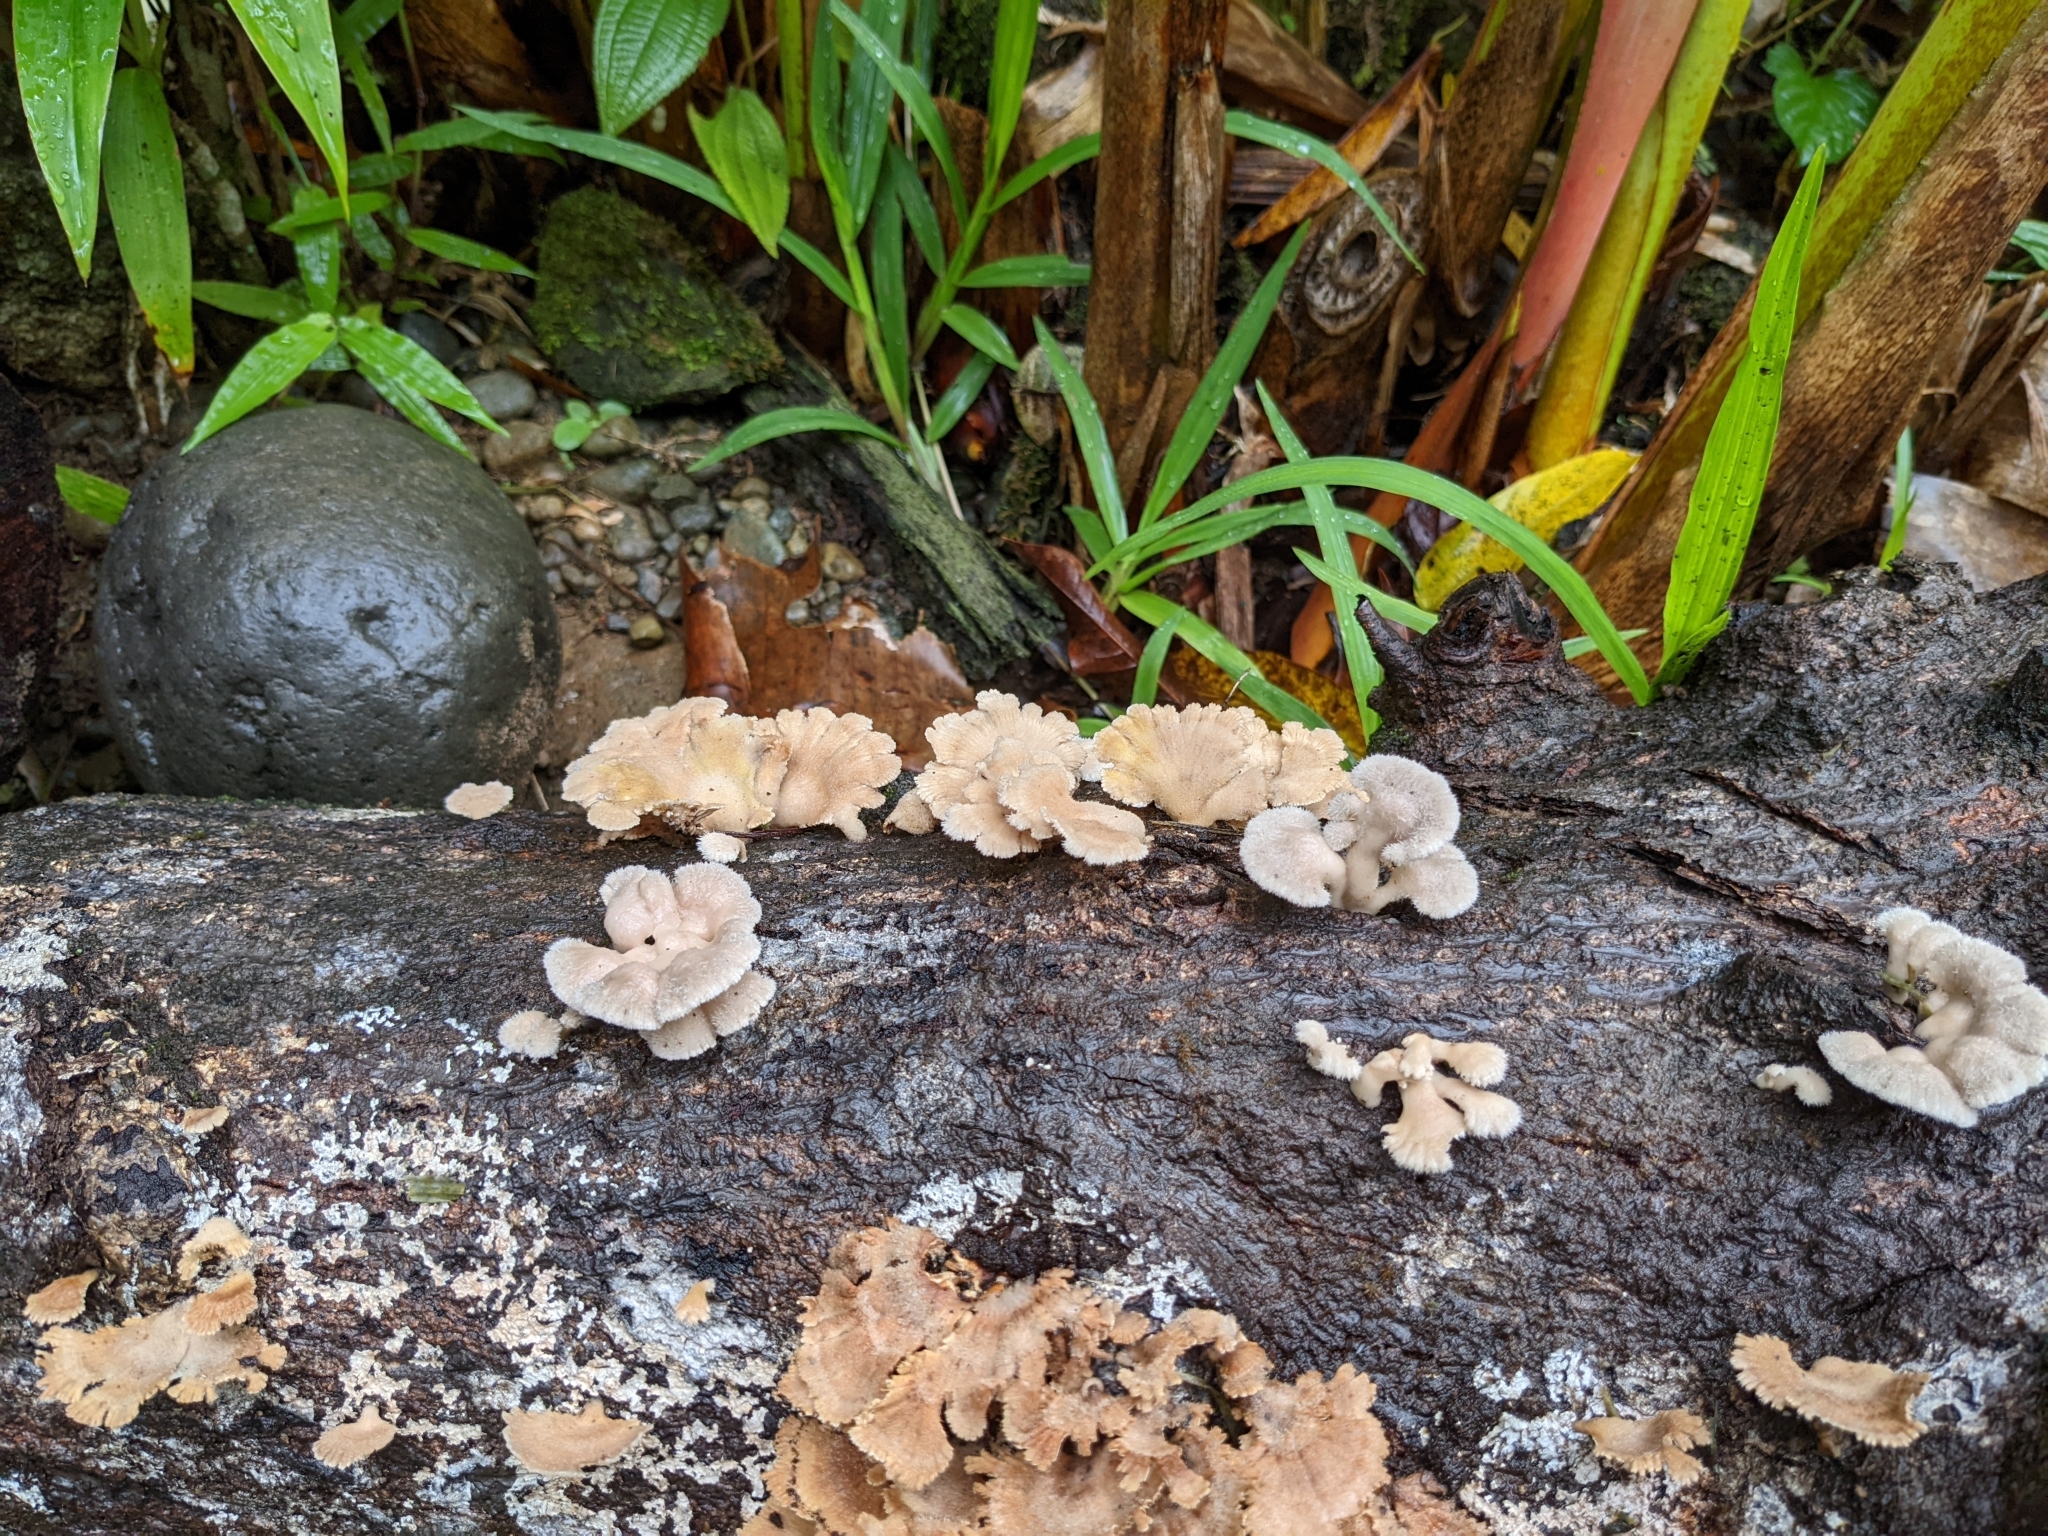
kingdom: Fungi
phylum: Basidiomycota
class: Agaricomycetes
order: Agaricales
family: Schizophyllaceae
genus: Schizophyllum
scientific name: Schizophyllum commune
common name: Common porecrust
